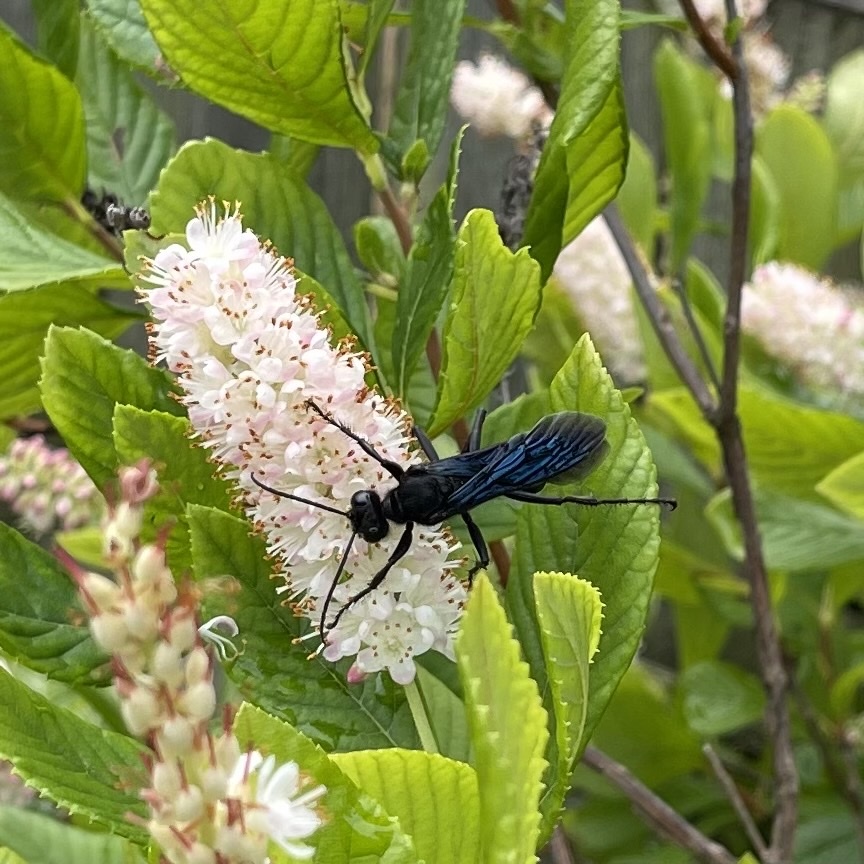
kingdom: Animalia
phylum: Arthropoda
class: Insecta
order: Hymenoptera
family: Sphecidae
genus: Sphex
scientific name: Sphex pensylvanicus
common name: Great black digger wasp
